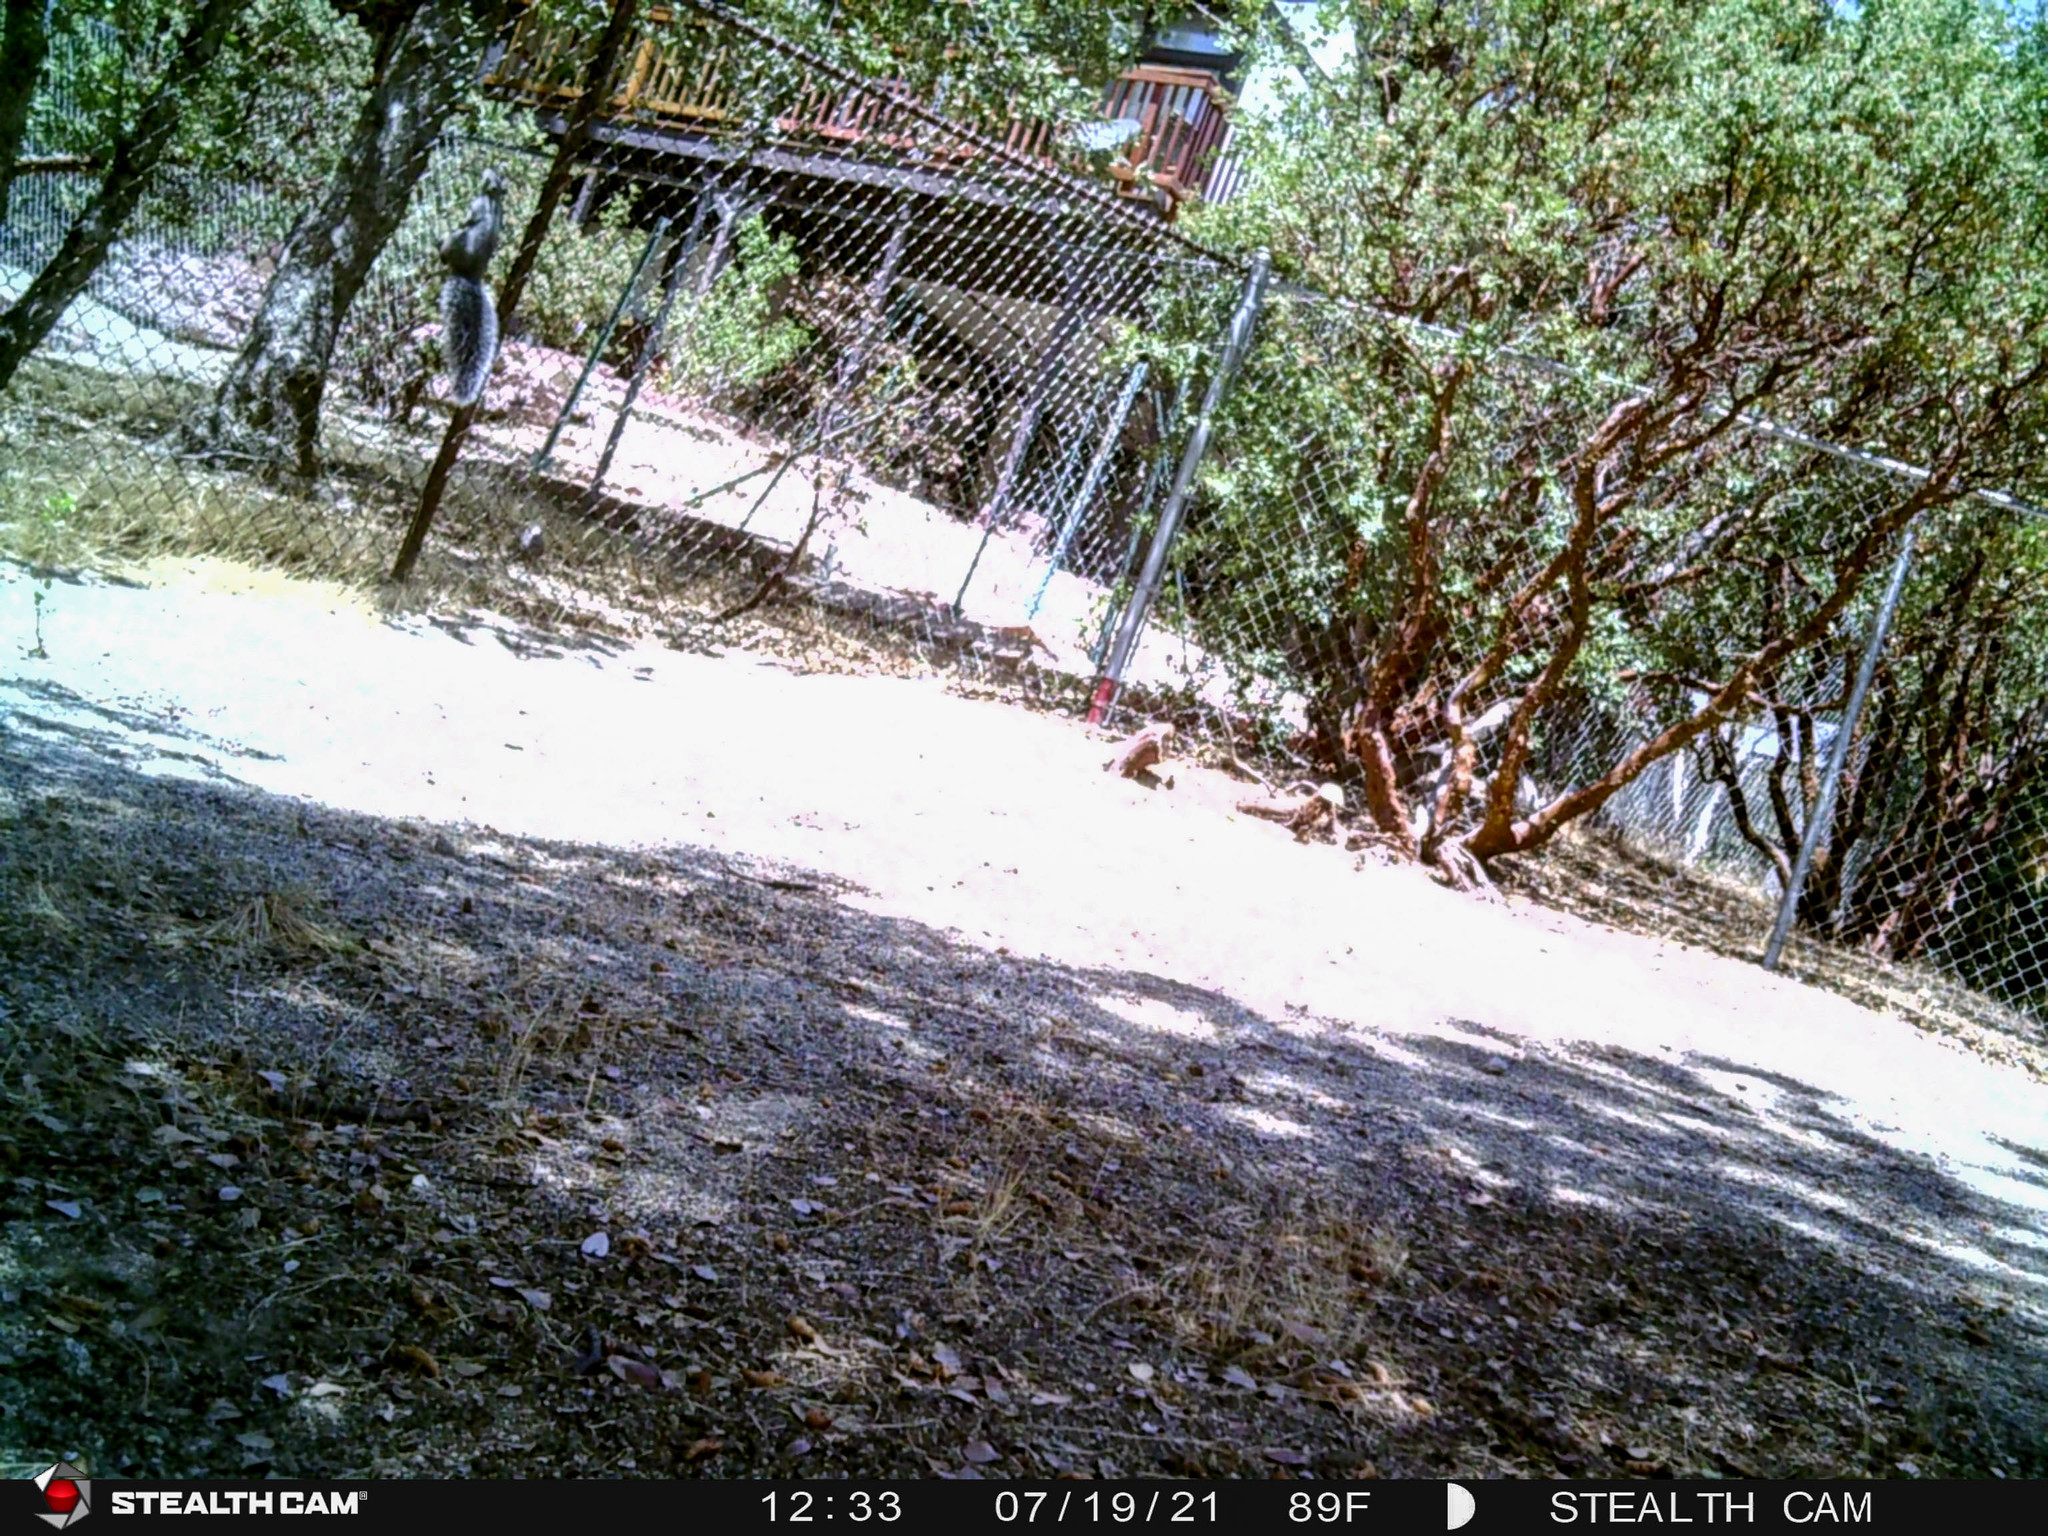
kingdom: Animalia
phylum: Chordata
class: Mammalia
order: Rodentia
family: Sciuridae
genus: Sciurus
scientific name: Sciurus griseus
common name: Western gray squirrel
